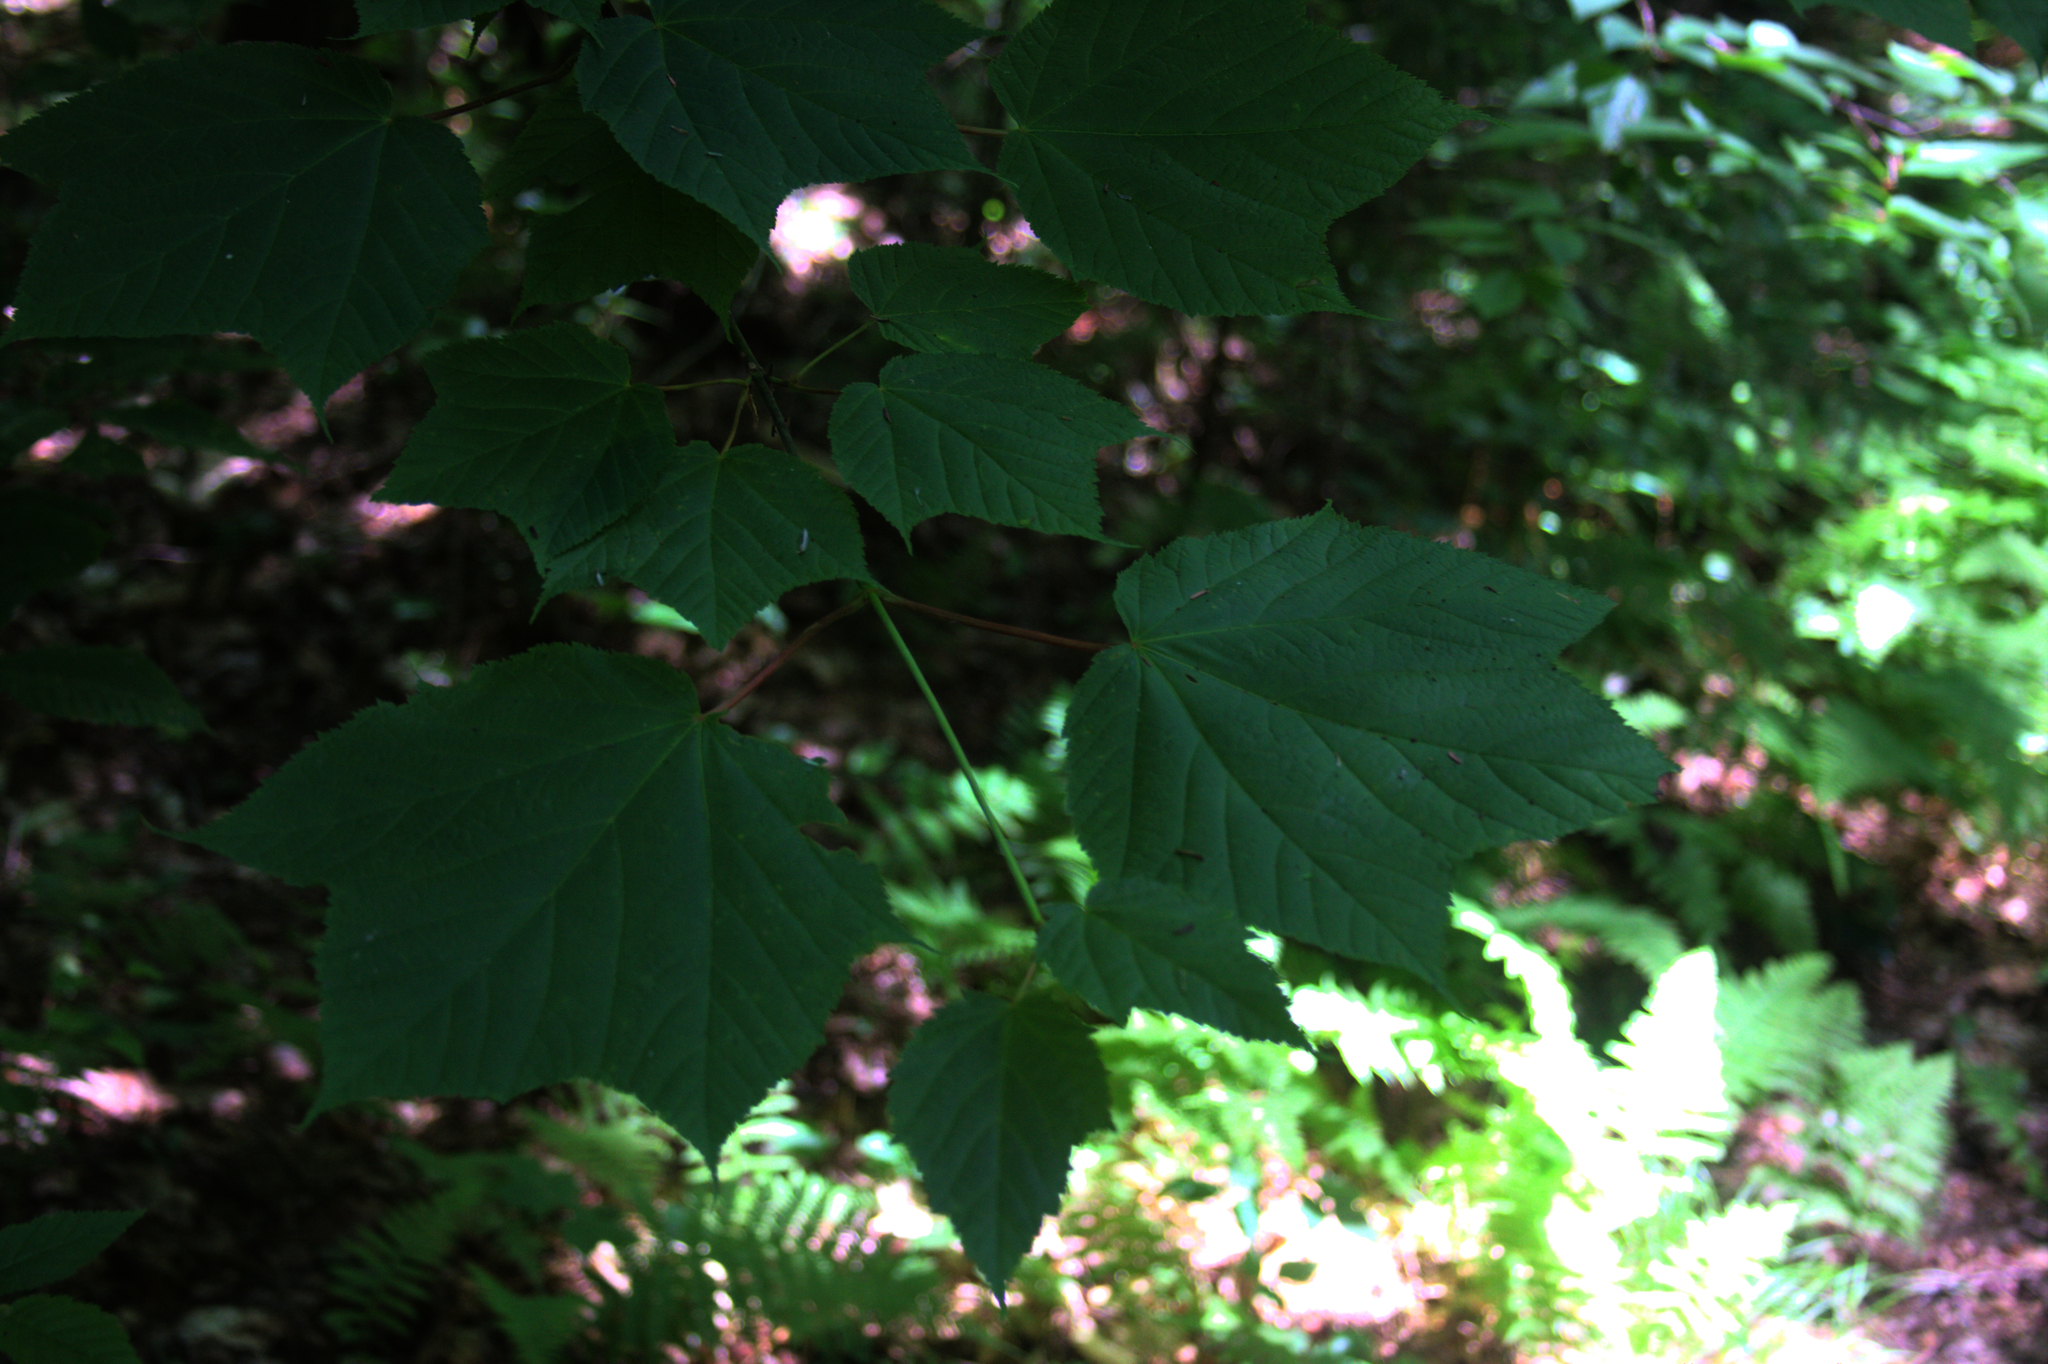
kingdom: Plantae
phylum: Tracheophyta
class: Magnoliopsida
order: Sapindales
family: Sapindaceae
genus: Acer
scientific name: Acer pensylvanicum
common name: Moosewood
